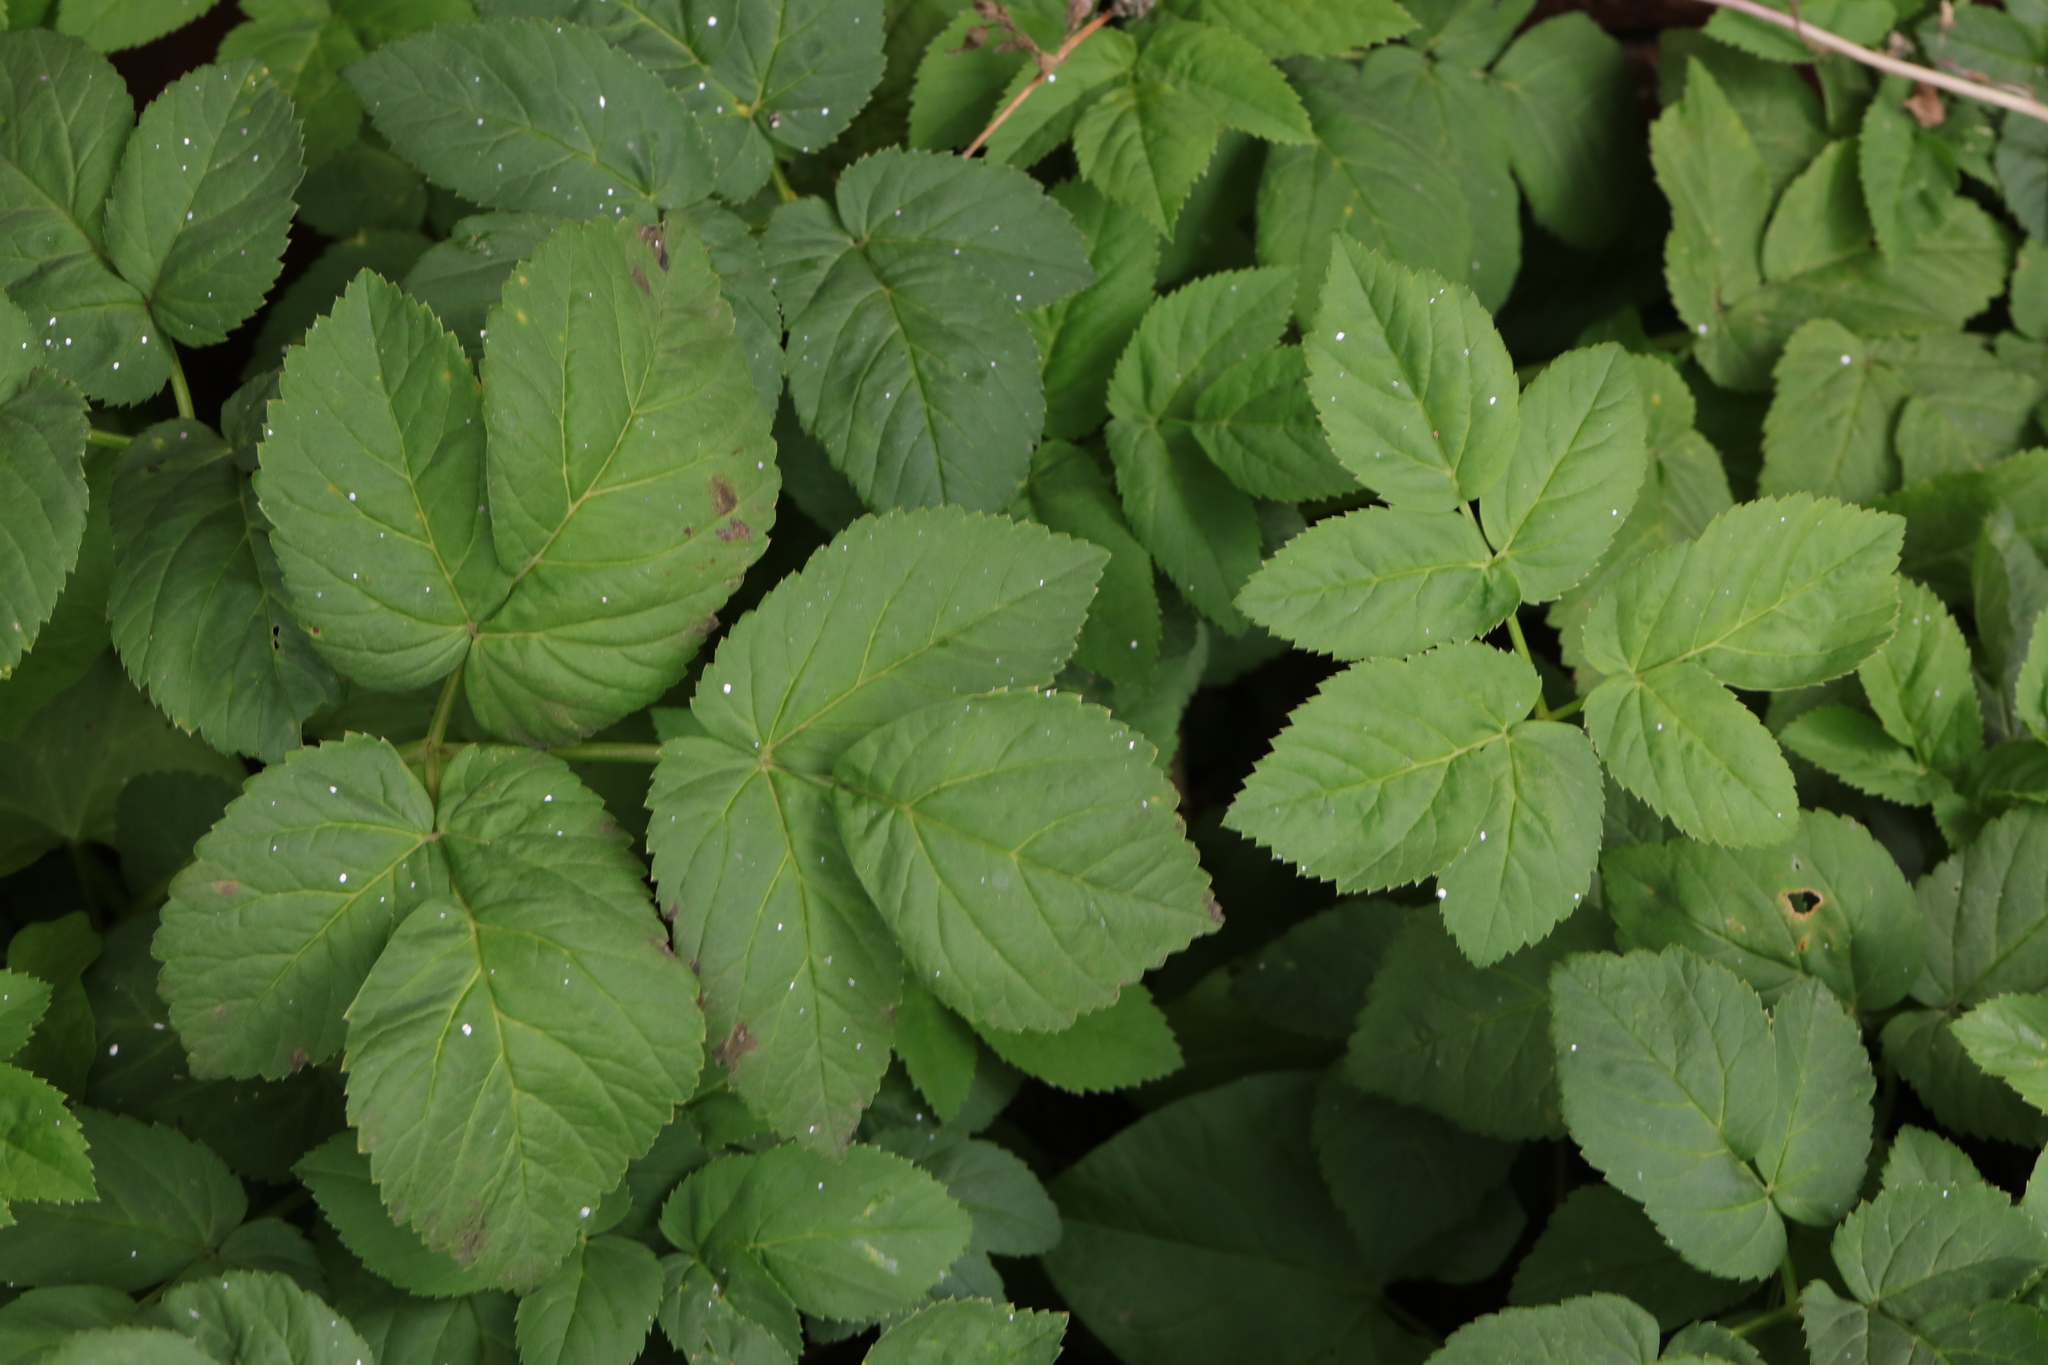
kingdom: Plantae
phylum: Tracheophyta
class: Magnoliopsida
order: Apiales
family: Apiaceae
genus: Aegopodium
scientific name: Aegopodium podagraria
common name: Ground-elder
